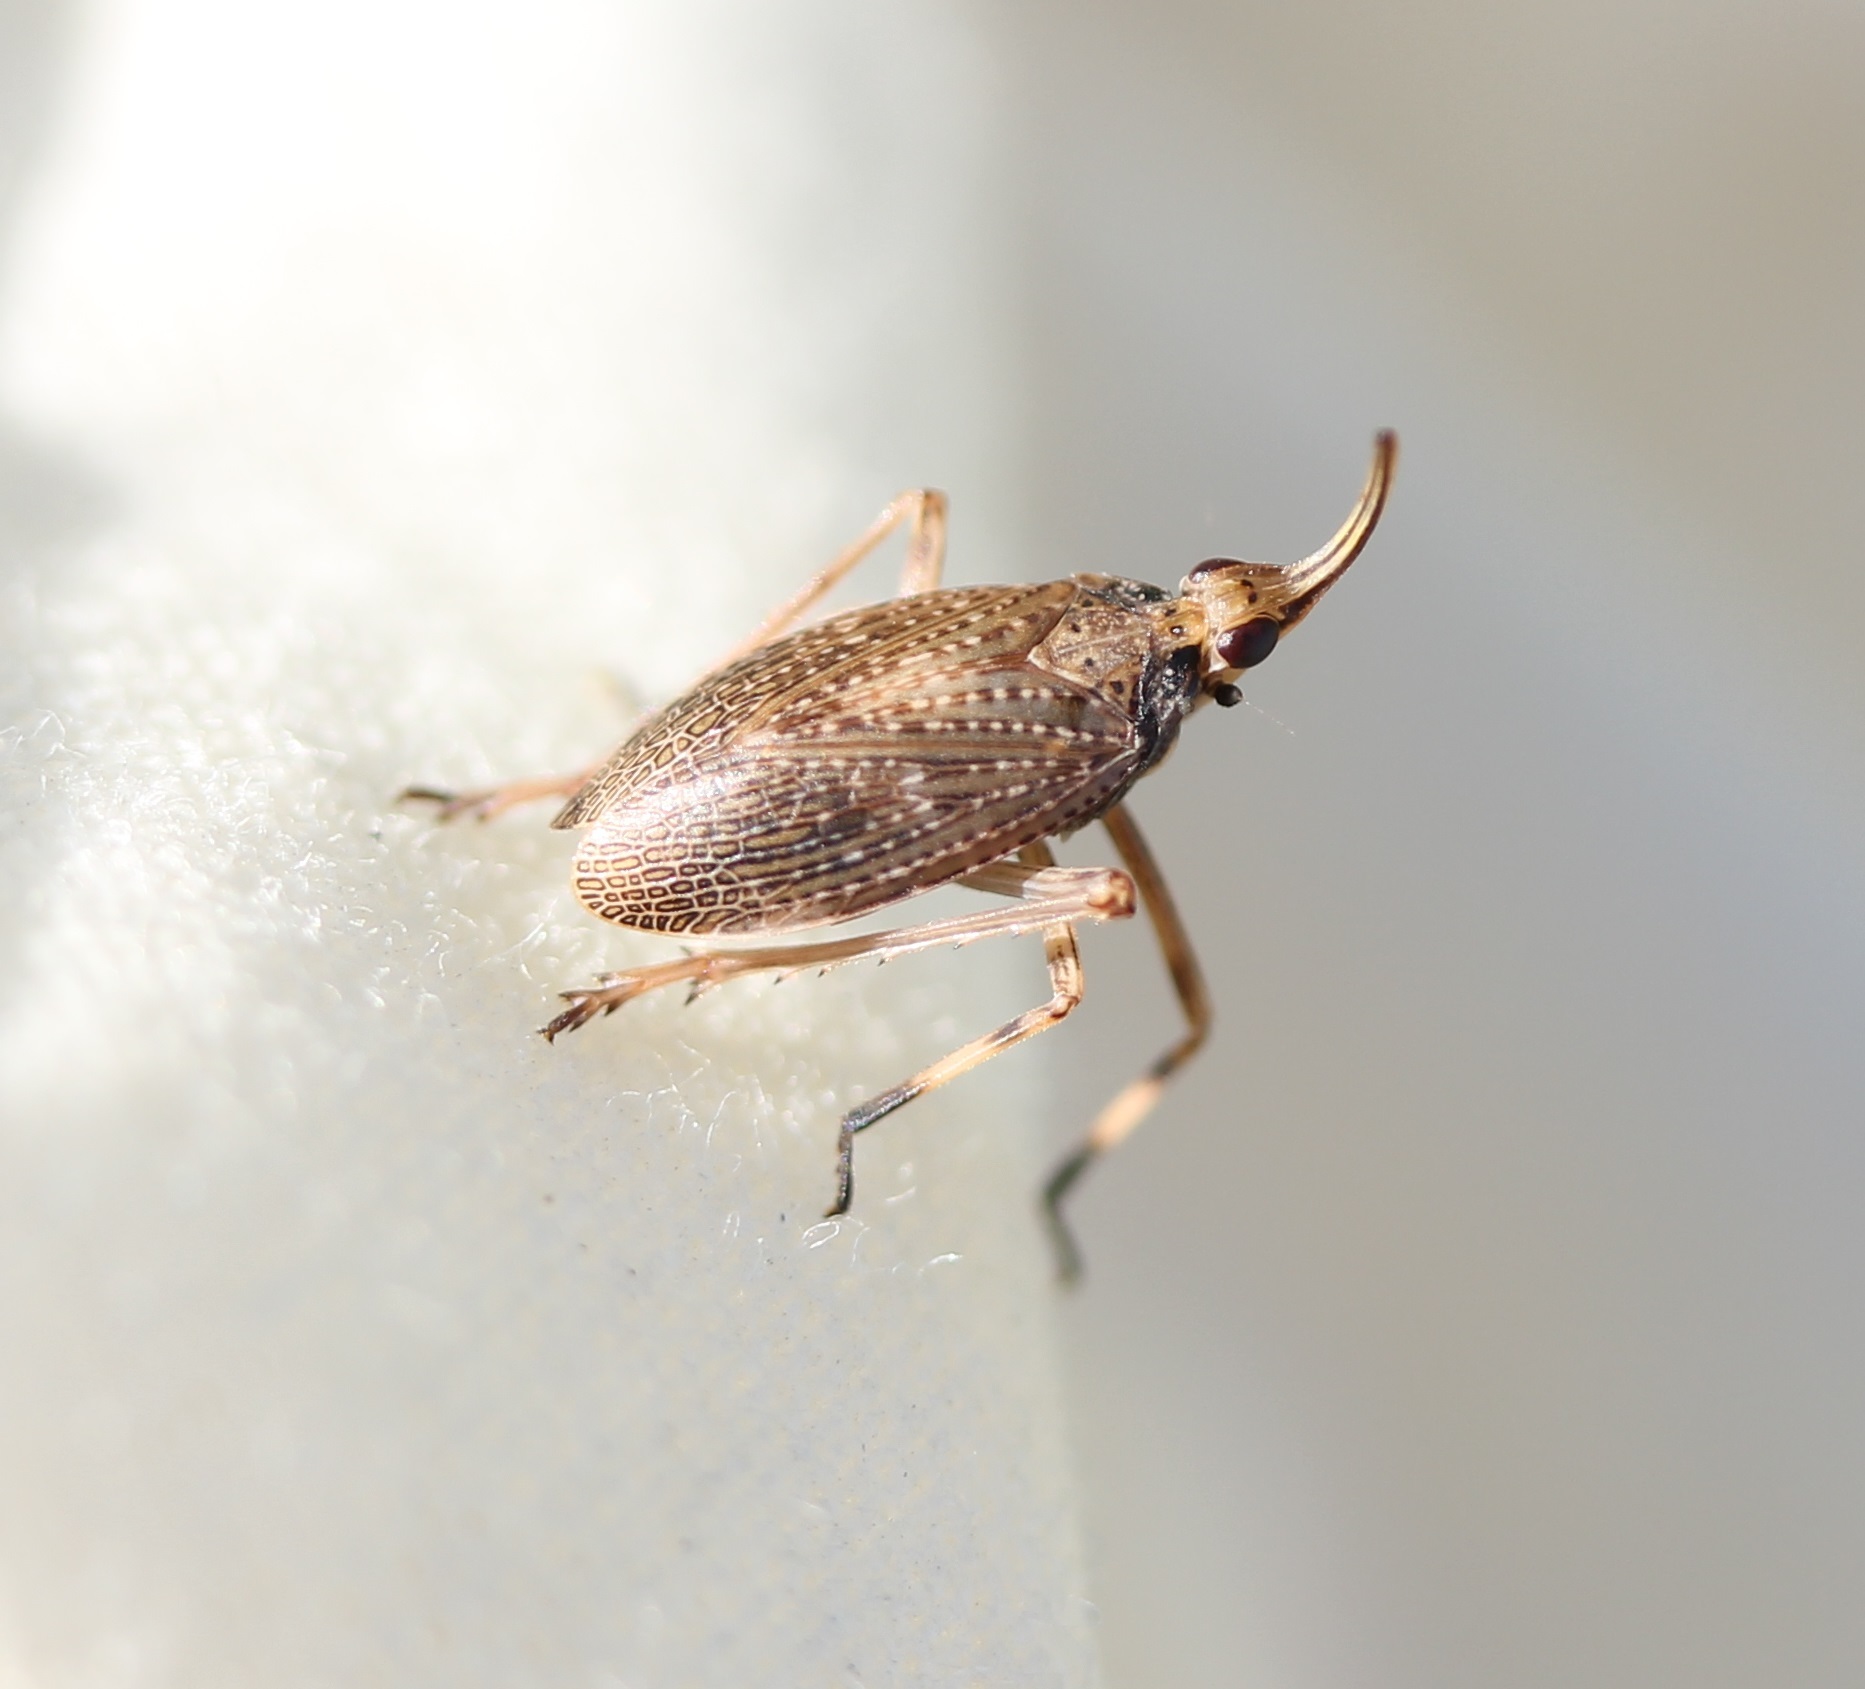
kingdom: Animalia
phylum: Arthropoda
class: Insecta
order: Hemiptera
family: Dictyopharidae
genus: Scolops
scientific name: Scolops sulcipes
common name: Partridge planthopper
